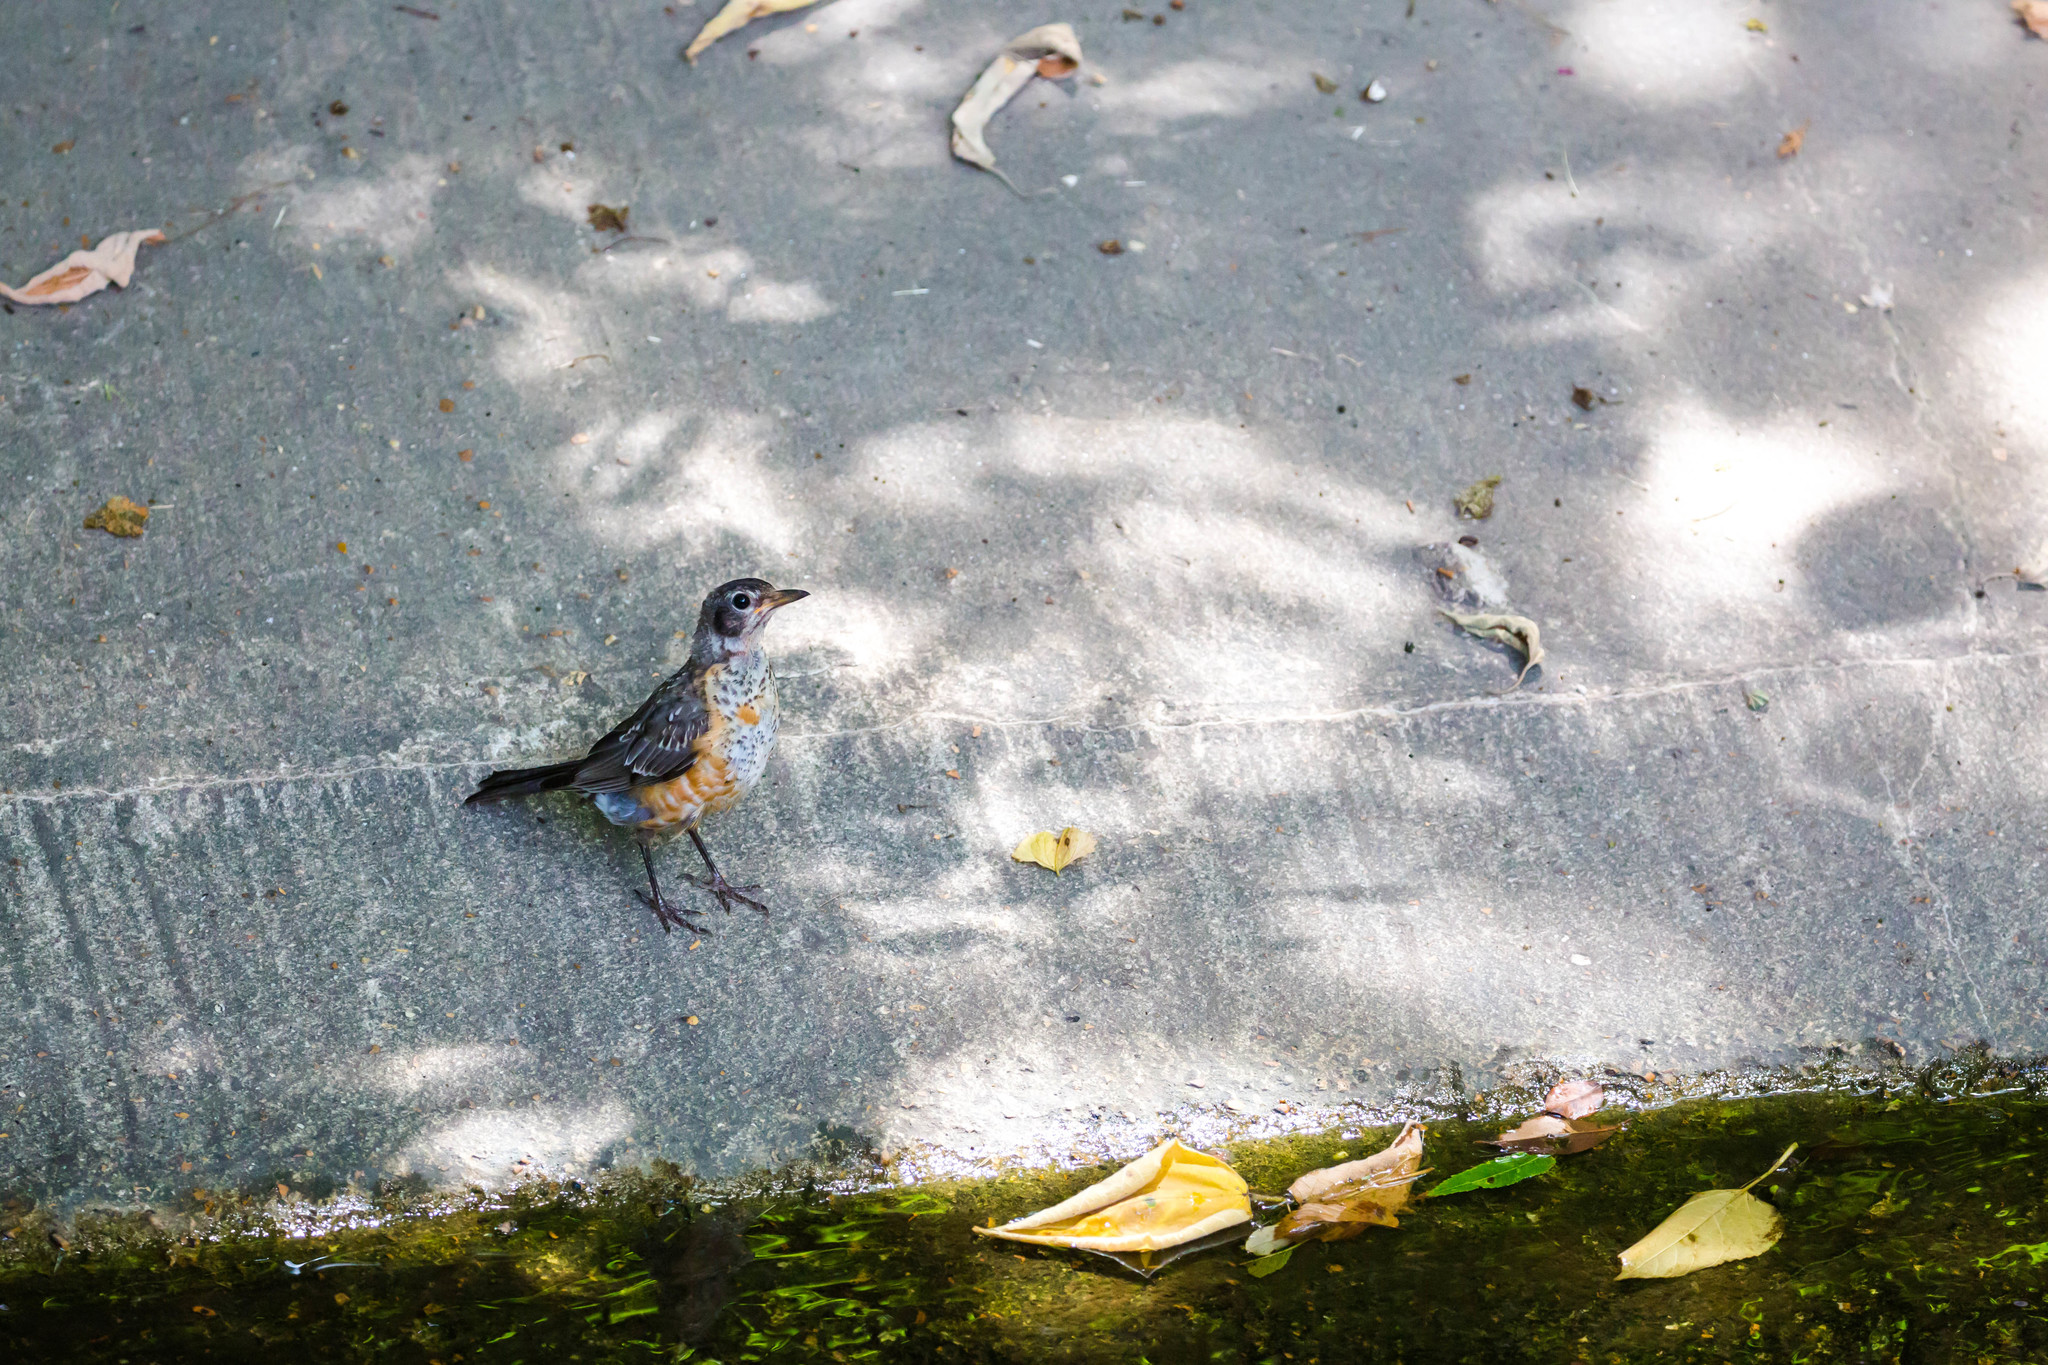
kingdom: Animalia
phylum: Chordata
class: Aves
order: Passeriformes
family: Turdidae
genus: Turdus
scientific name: Turdus migratorius
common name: American robin
